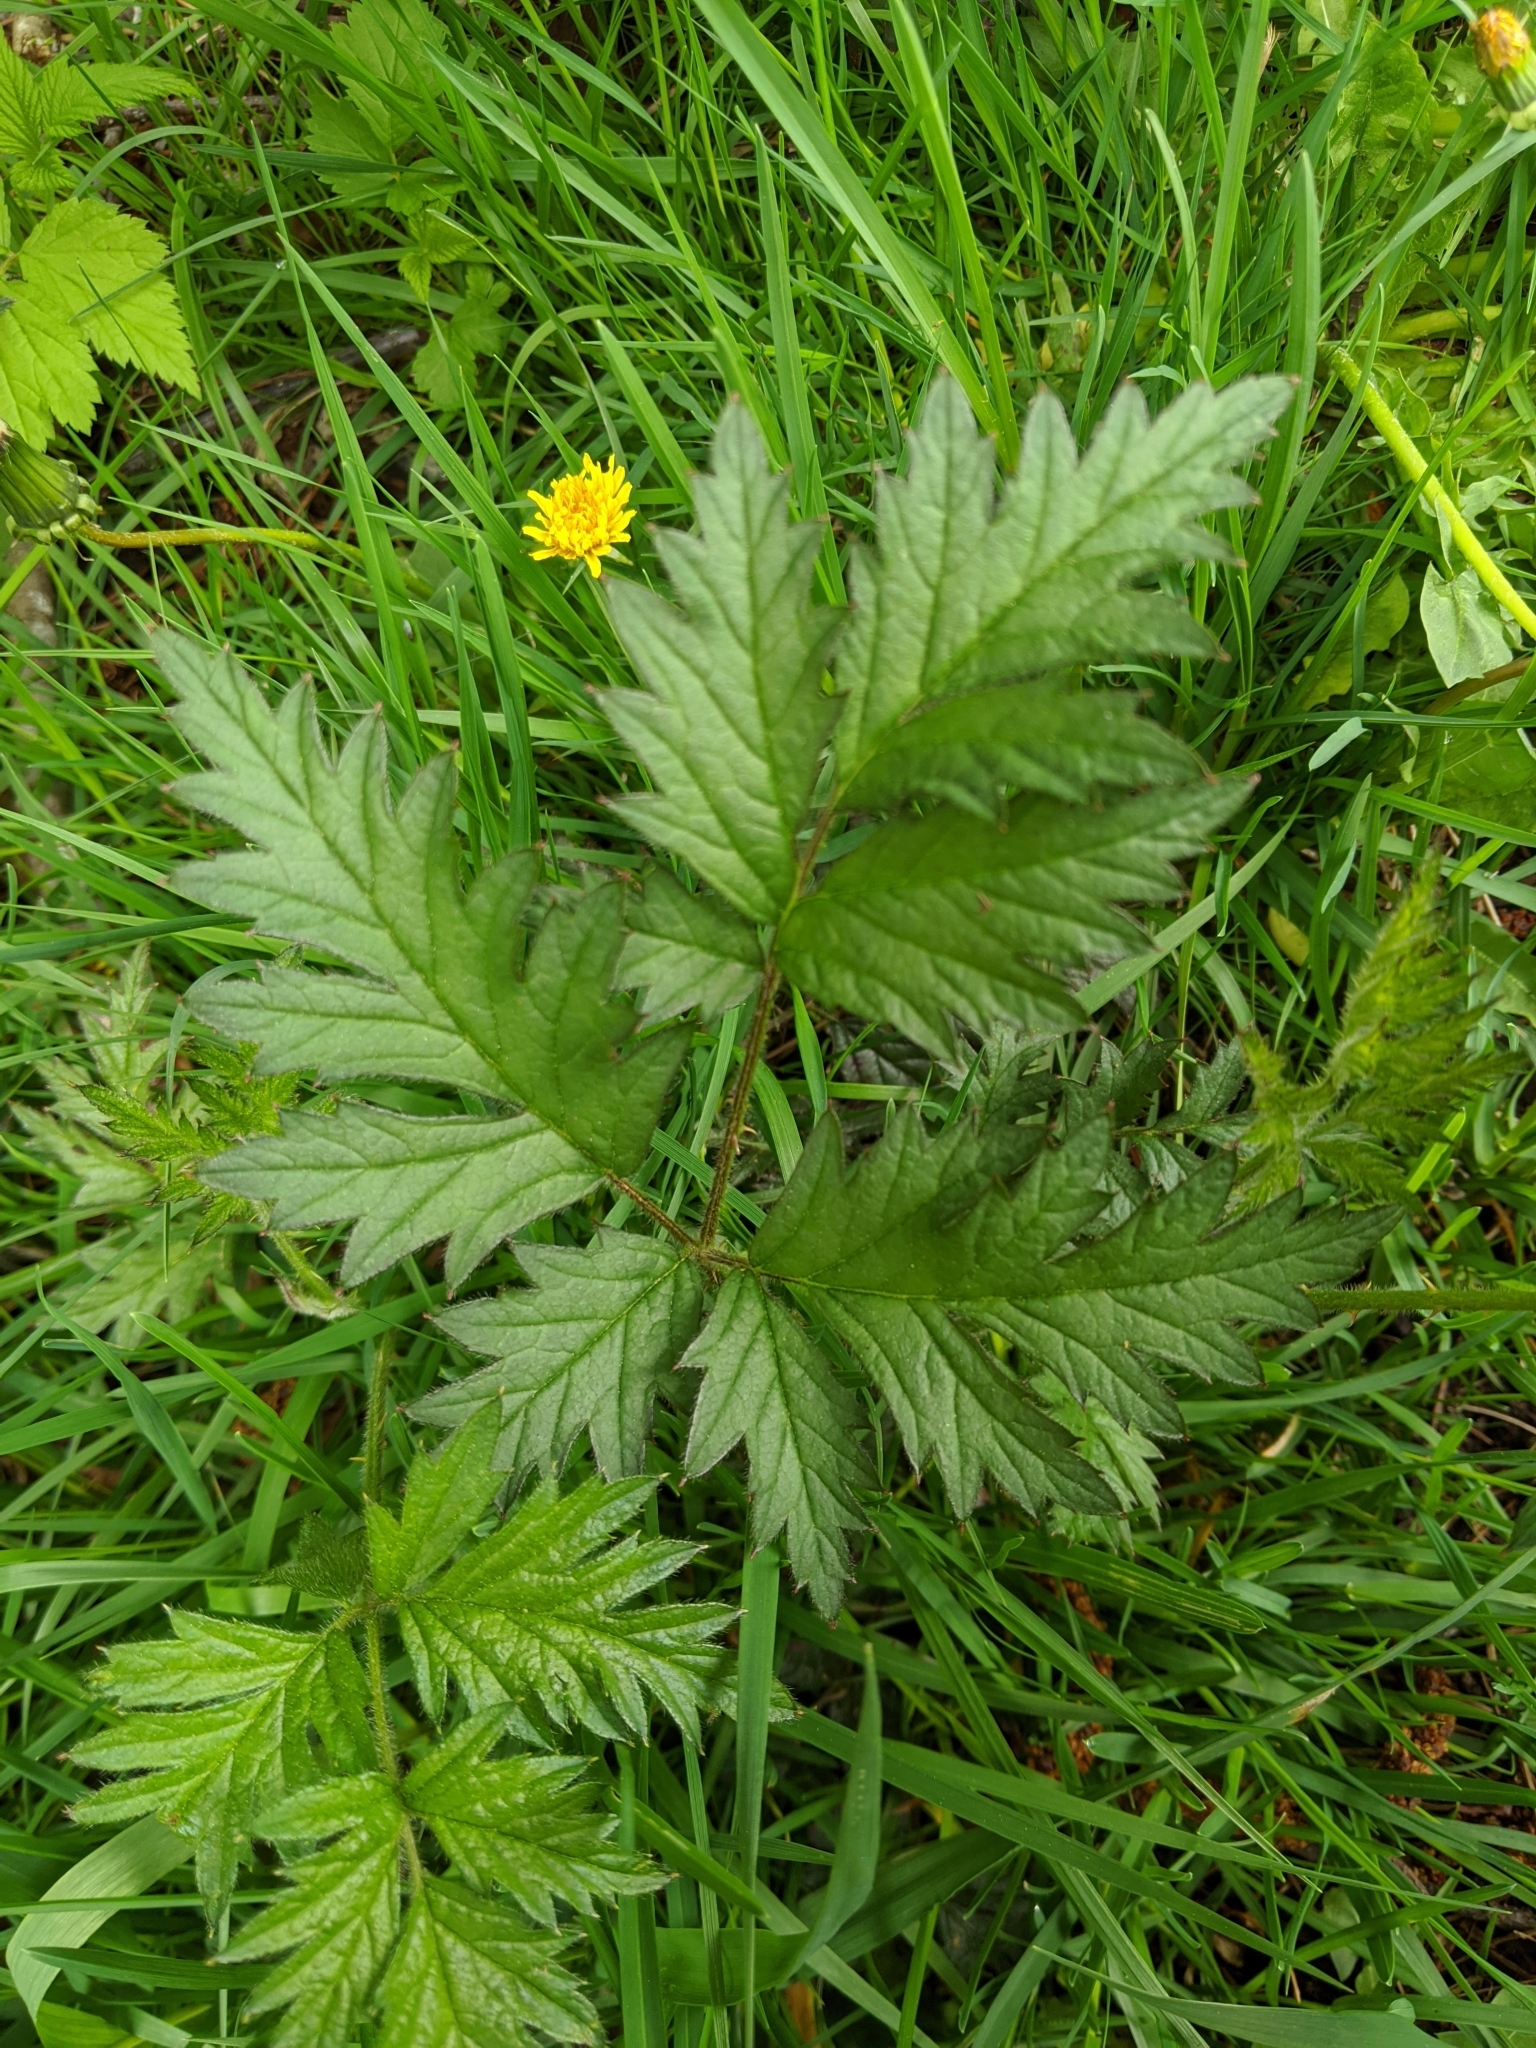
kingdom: Plantae
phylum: Tracheophyta
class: Magnoliopsida
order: Rosales
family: Rosaceae
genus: Rubus
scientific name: Rubus laciniatus
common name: Evergreen blackberry
